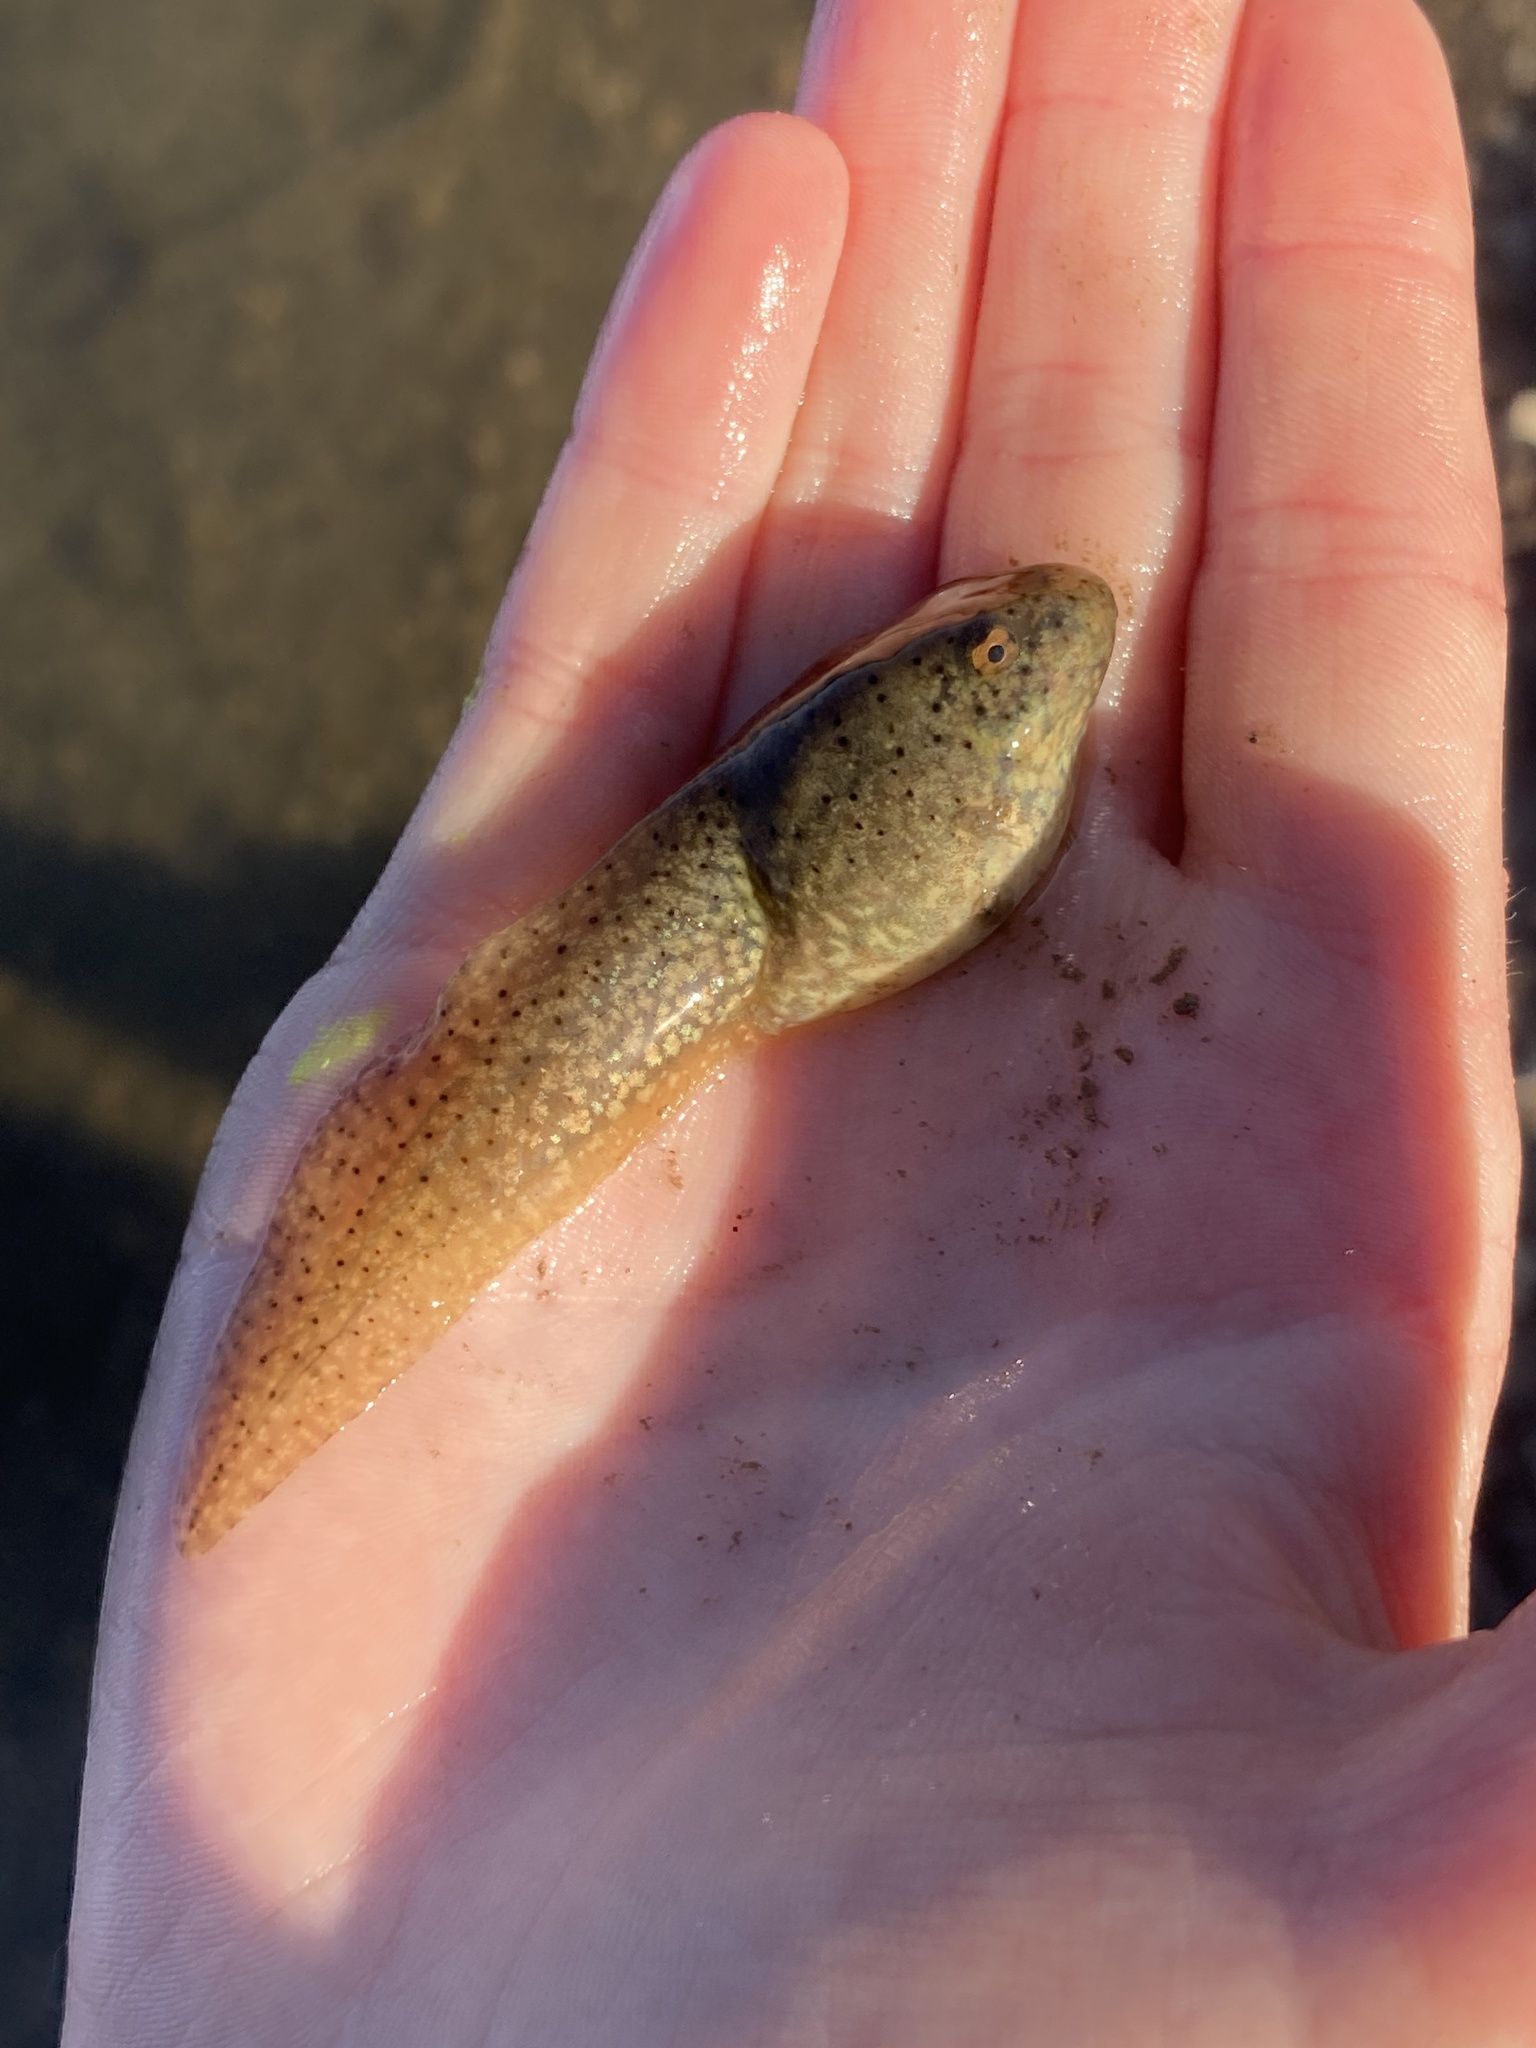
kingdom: Animalia
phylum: Chordata
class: Amphibia
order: Anura
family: Ranidae
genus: Lithobates
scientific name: Lithobates catesbeianus
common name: American bullfrog
